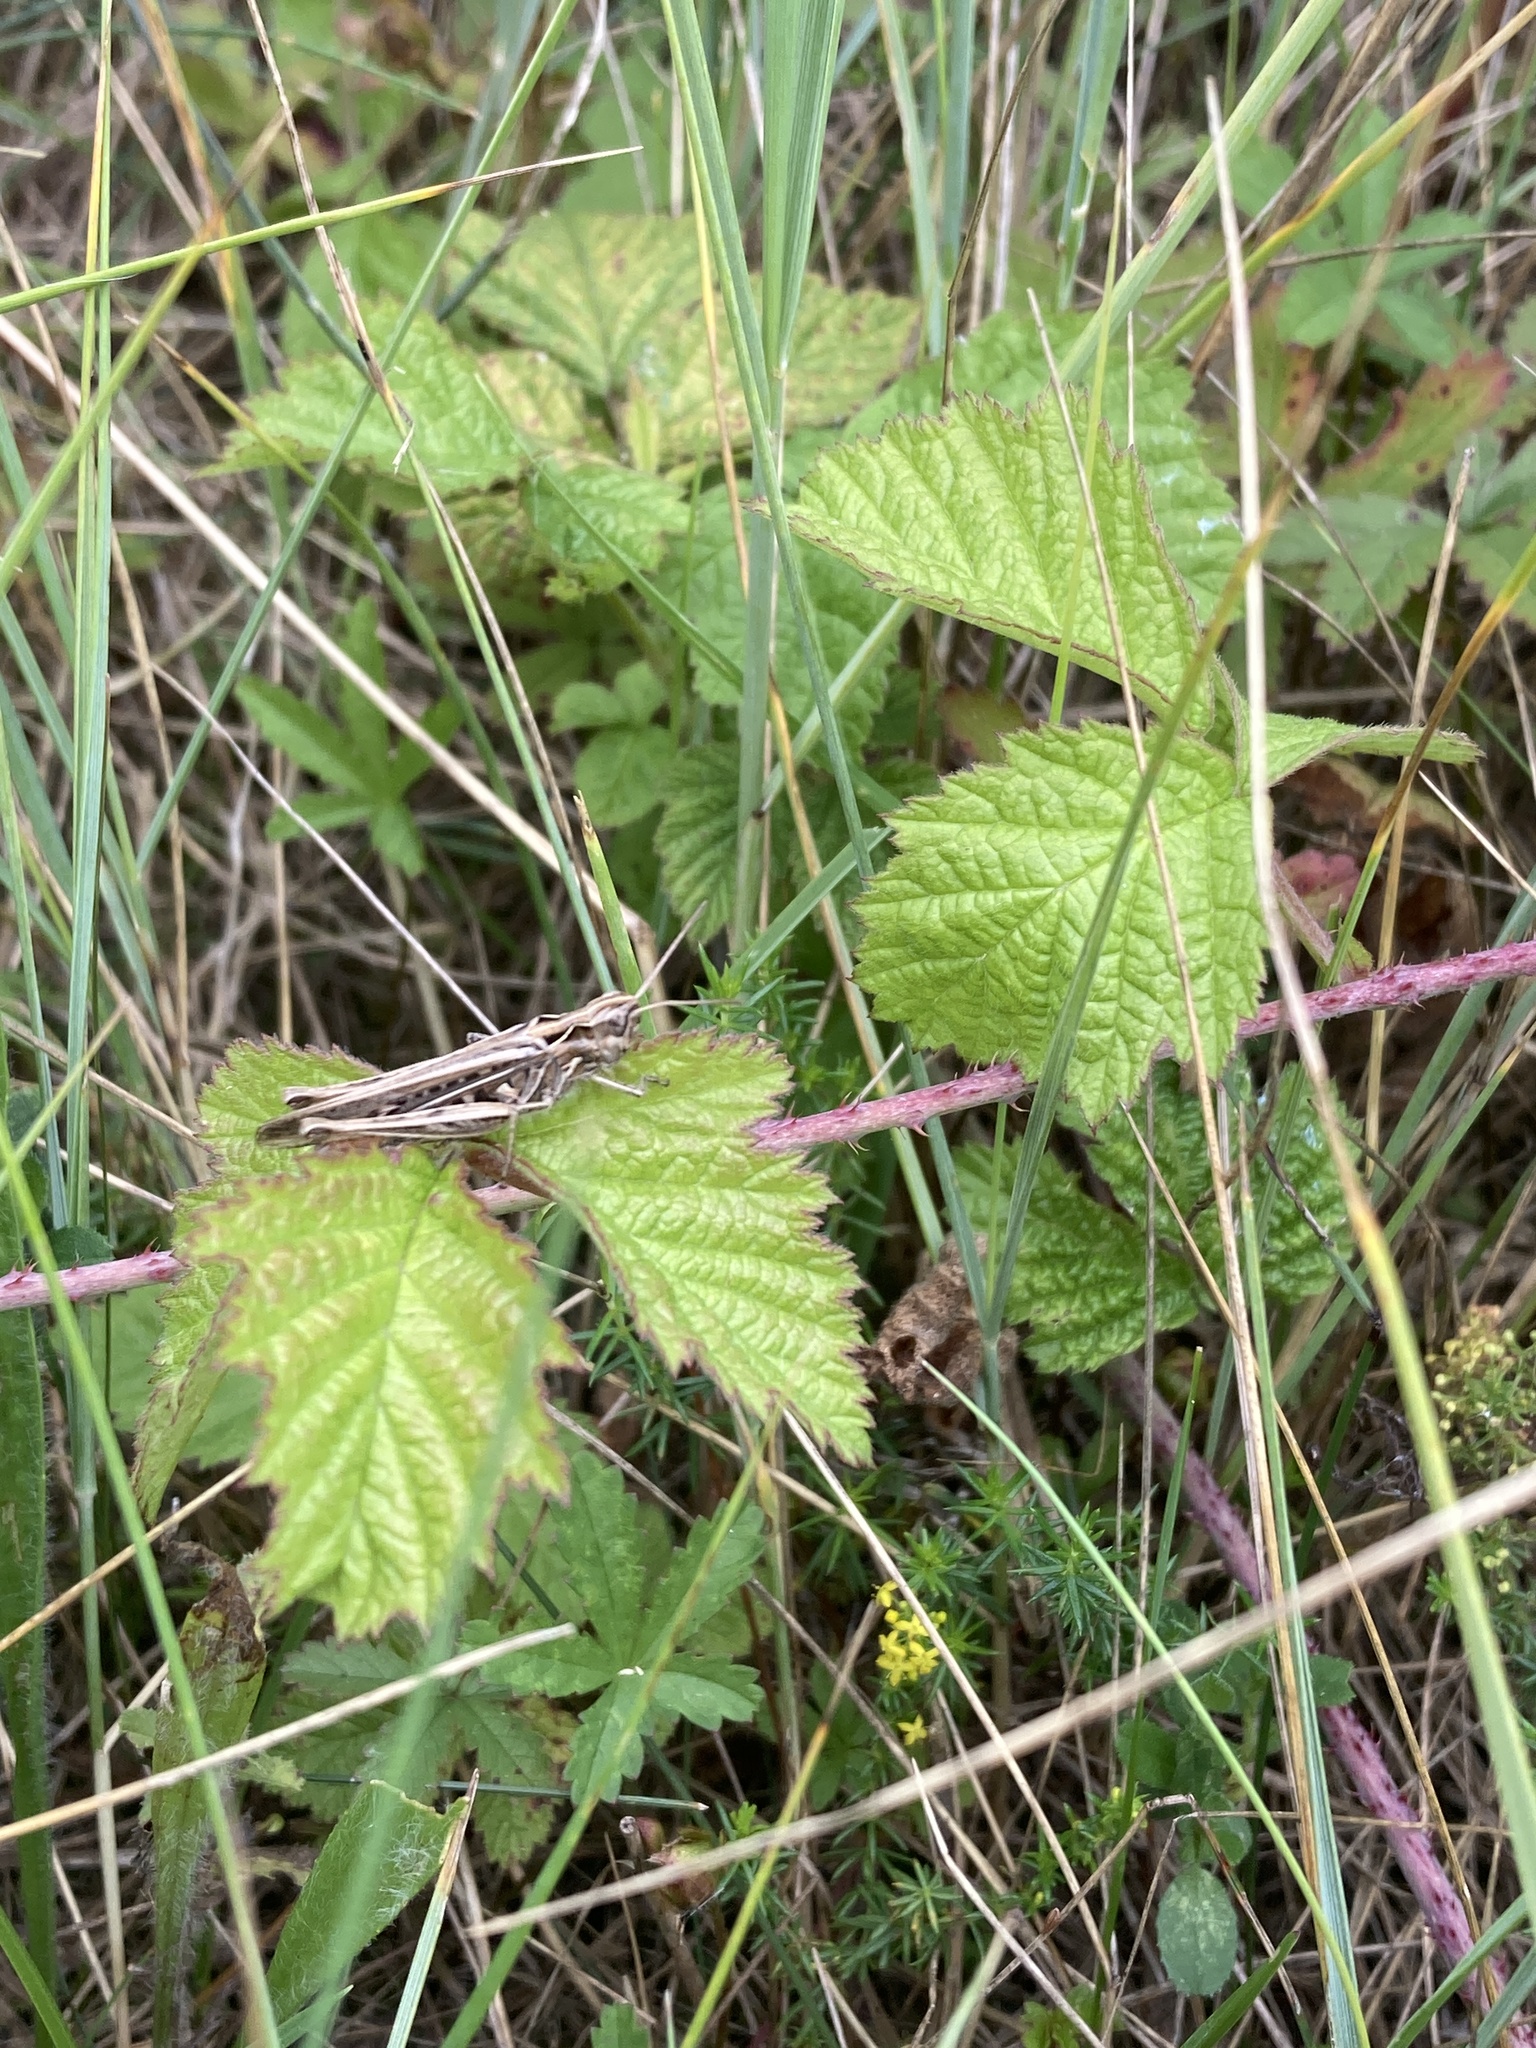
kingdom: Animalia
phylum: Arthropoda
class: Insecta
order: Orthoptera
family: Acrididae
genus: Chorthippus
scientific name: Chorthippus brunneus
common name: Field grasshopper
